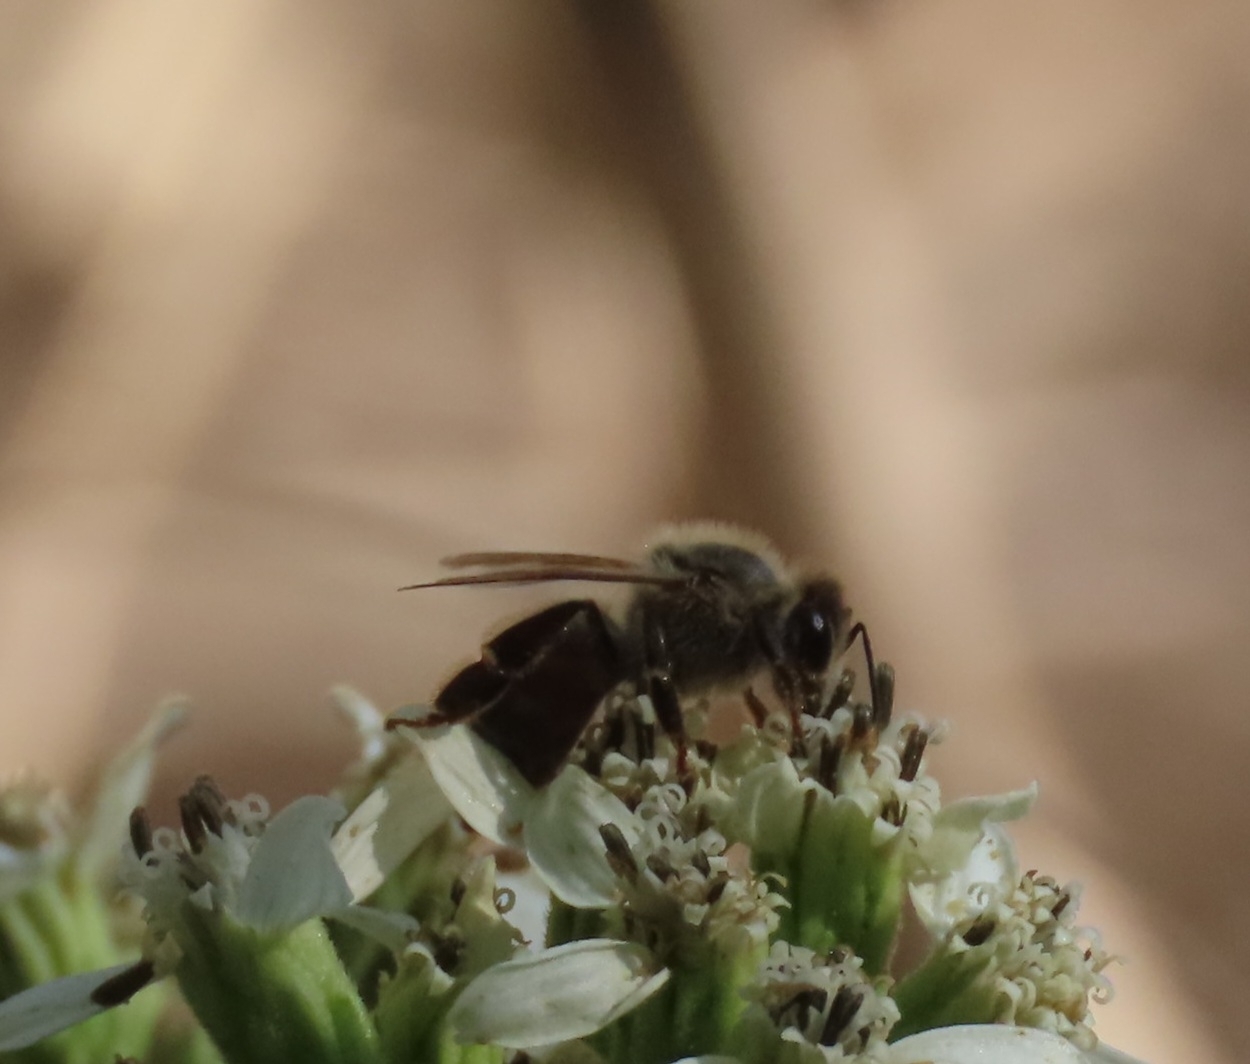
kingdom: Animalia
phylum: Arthropoda
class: Insecta
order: Hymenoptera
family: Apidae
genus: Apis
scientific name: Apis mellifera
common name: Honey bee
